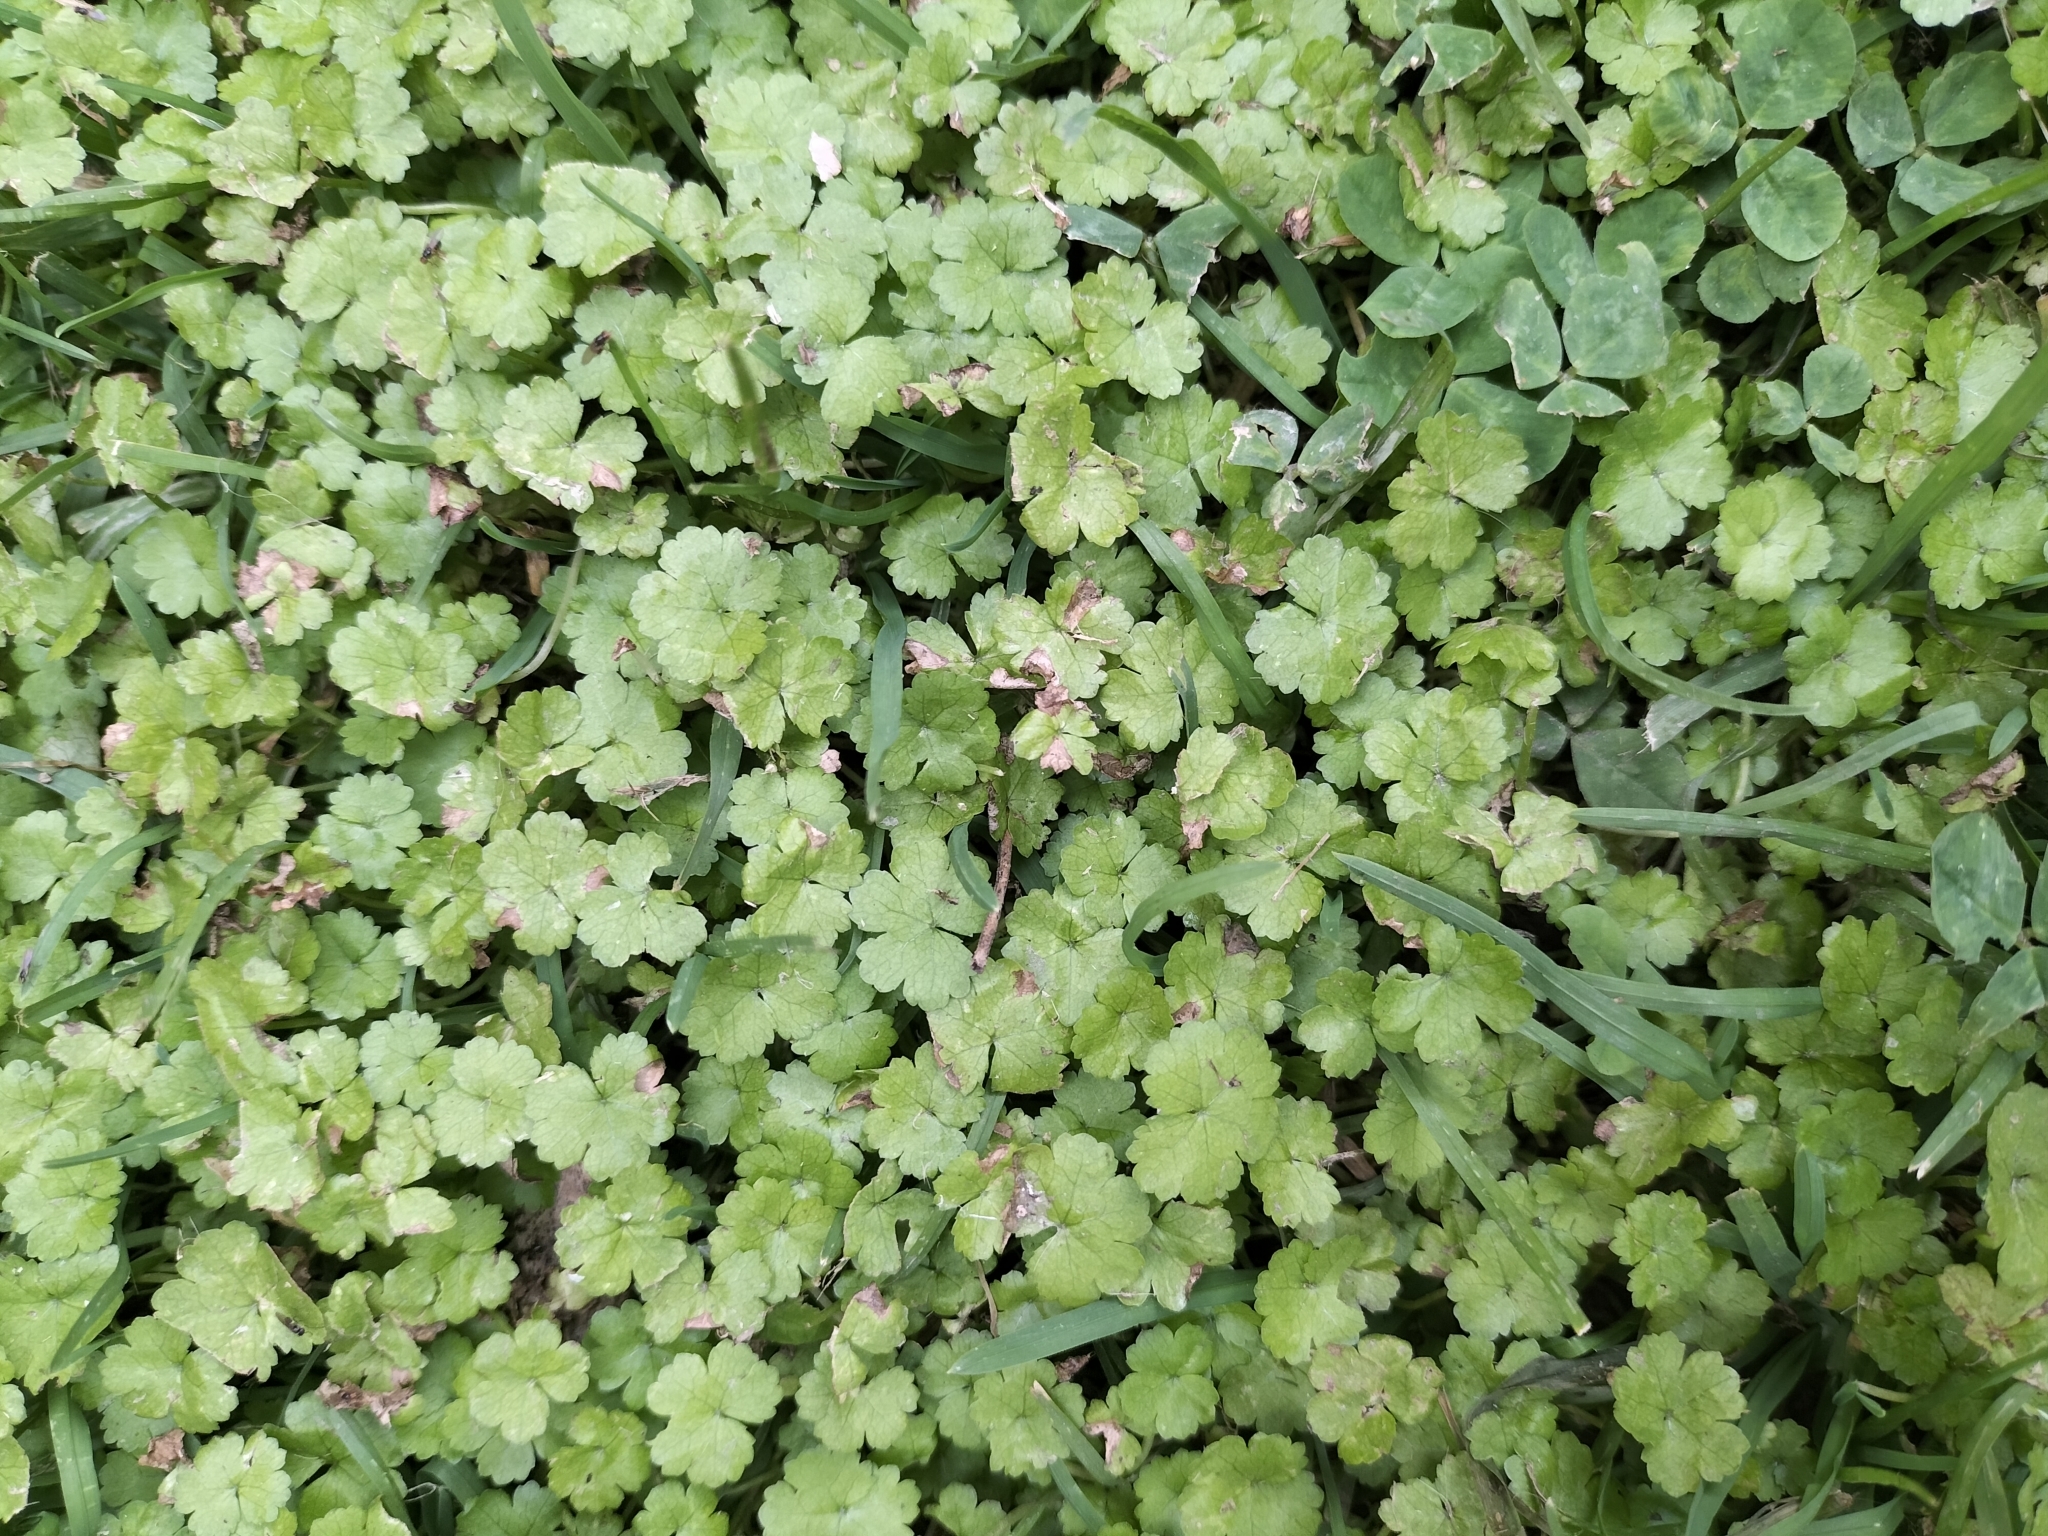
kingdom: Plantae
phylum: Tracheophyta
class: Magnoliopsida
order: Apiales
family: Araliaceae
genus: Hydrocotyle
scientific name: Hydrocotyle heteromeria
